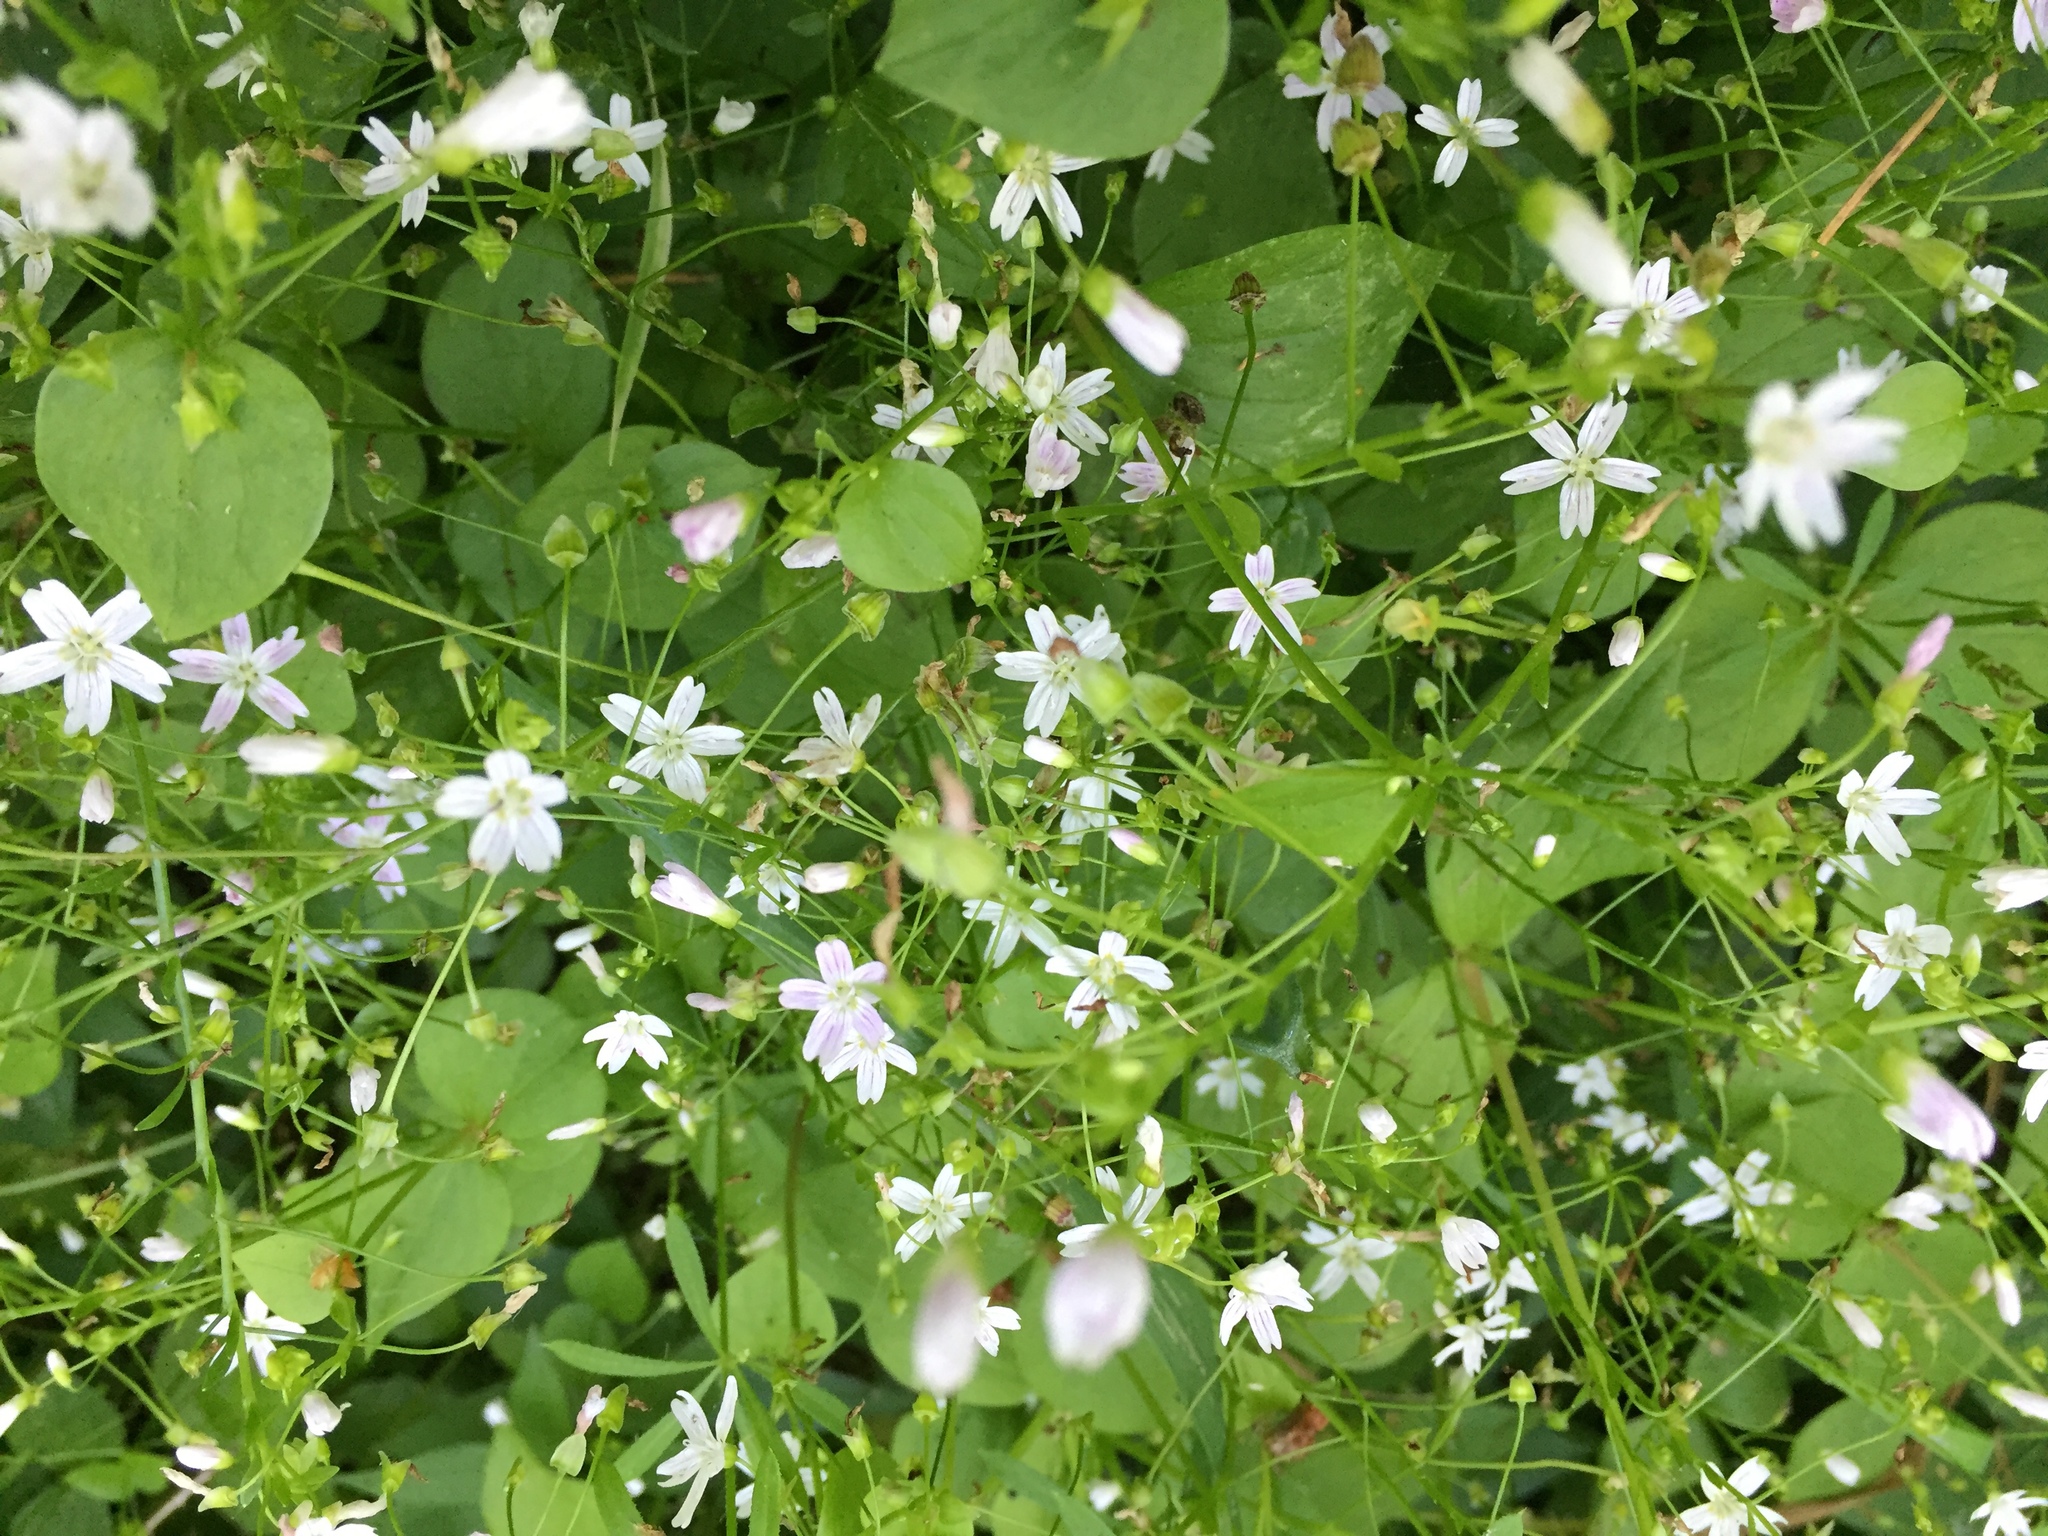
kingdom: Plantae
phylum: Tracheophyta
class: Magnoliopsida
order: Caryophyllales
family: Montiaceae
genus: Claytonia
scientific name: Claytonia sibirica
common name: Pink purslane
